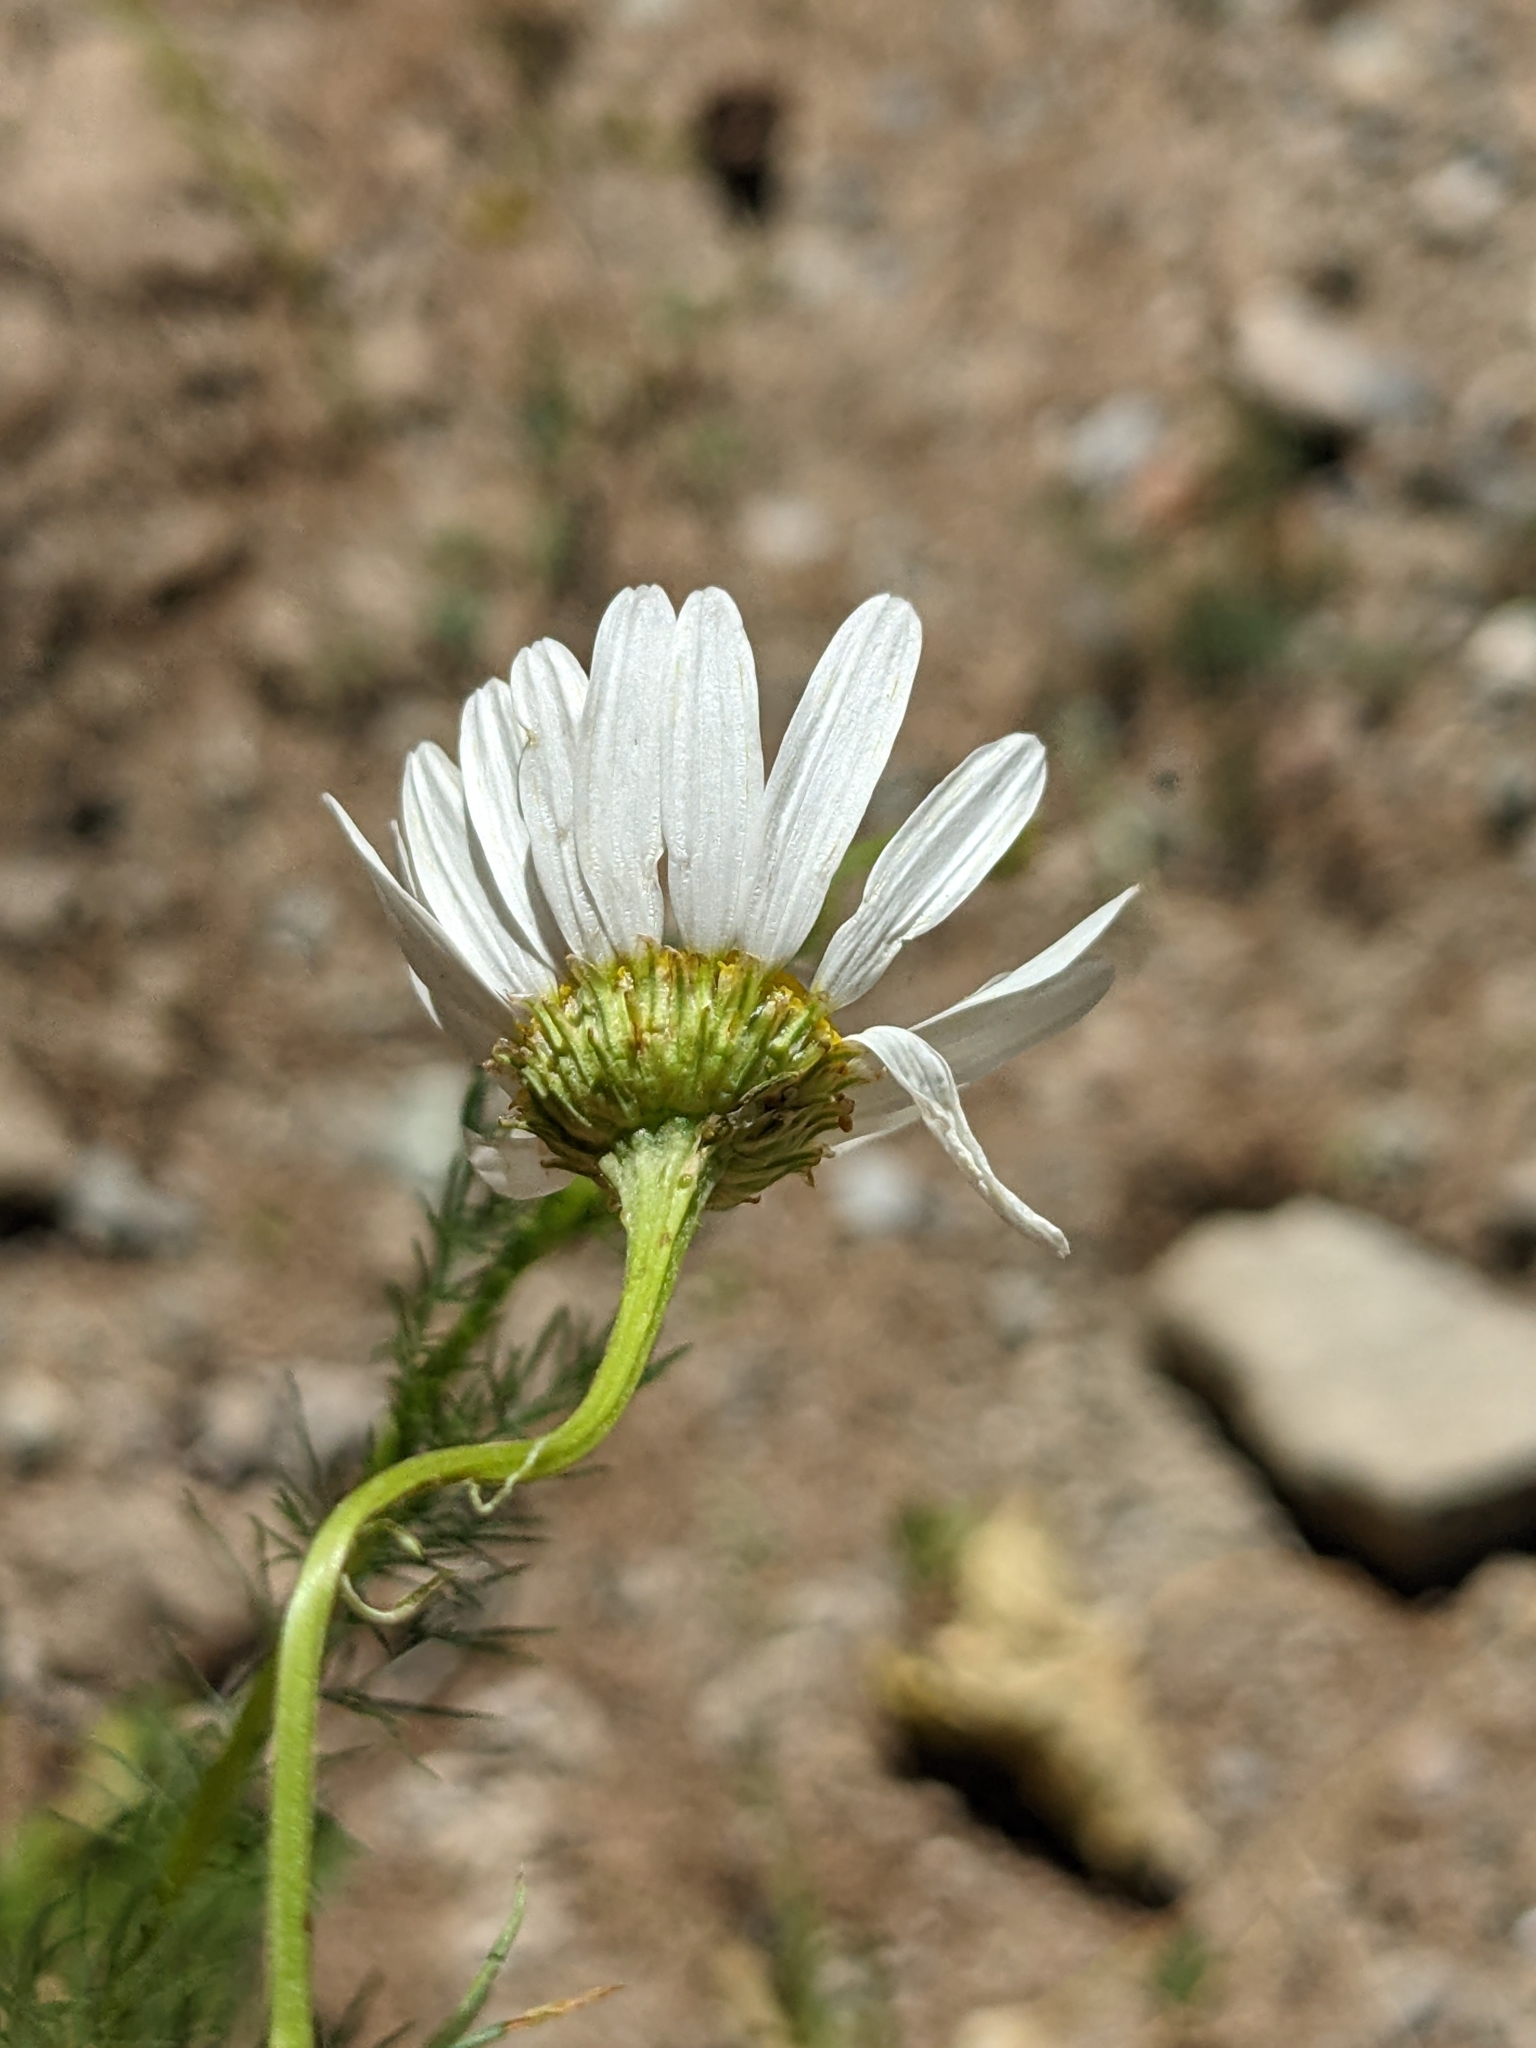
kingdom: Plantae
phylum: Tracheophyta
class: Magnoliopsida
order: Asterales
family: Asteraceae
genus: Tripleurospermum
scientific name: Tripleurospermum inodorum
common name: Scentless mayweed
